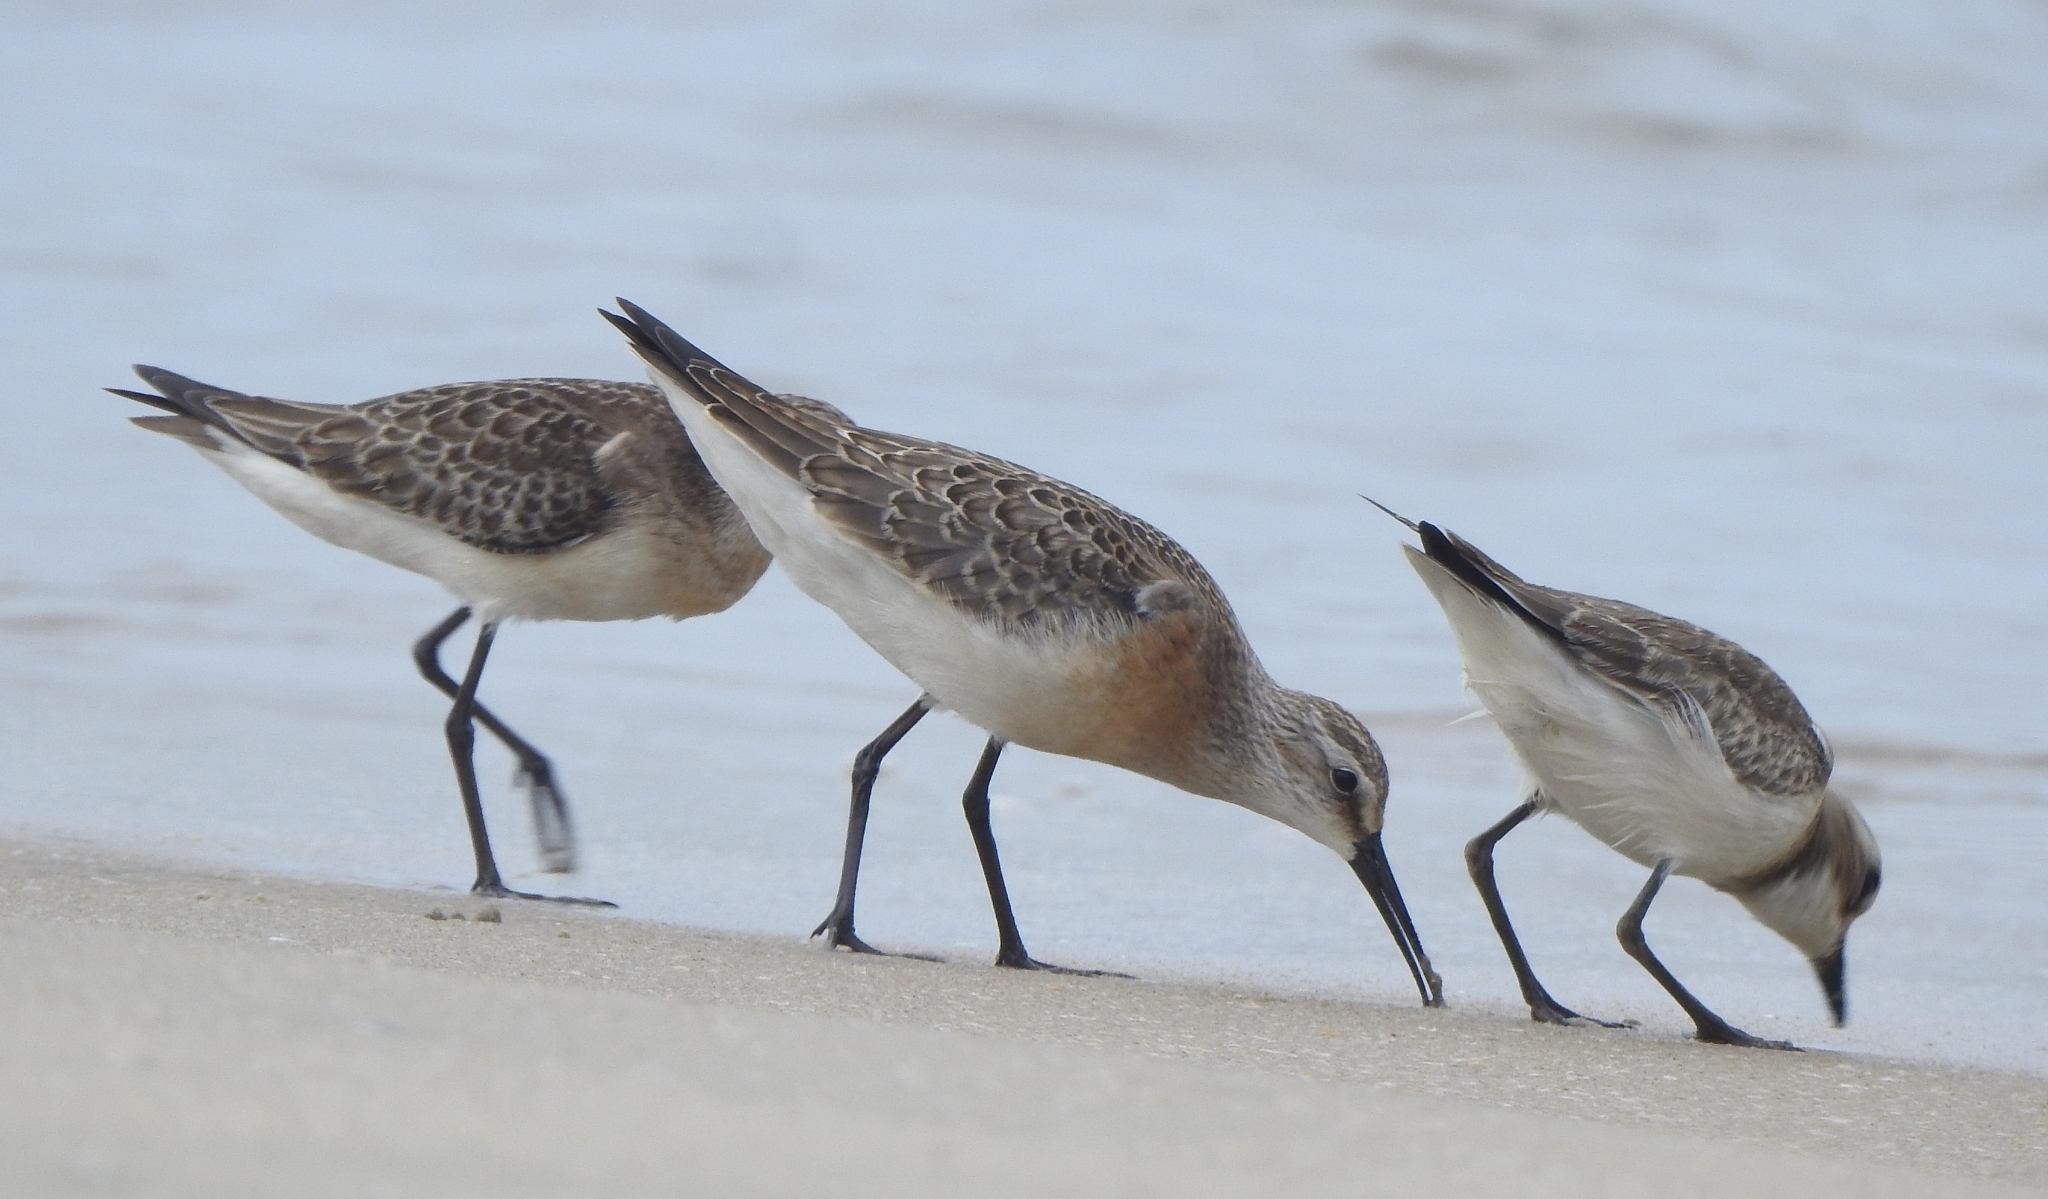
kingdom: Animalia
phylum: Chordata
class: Aves
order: Charadriiformes
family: Scolopacidae
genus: Calidris
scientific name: Calidris ferruginea
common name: Curlew sandpiper
